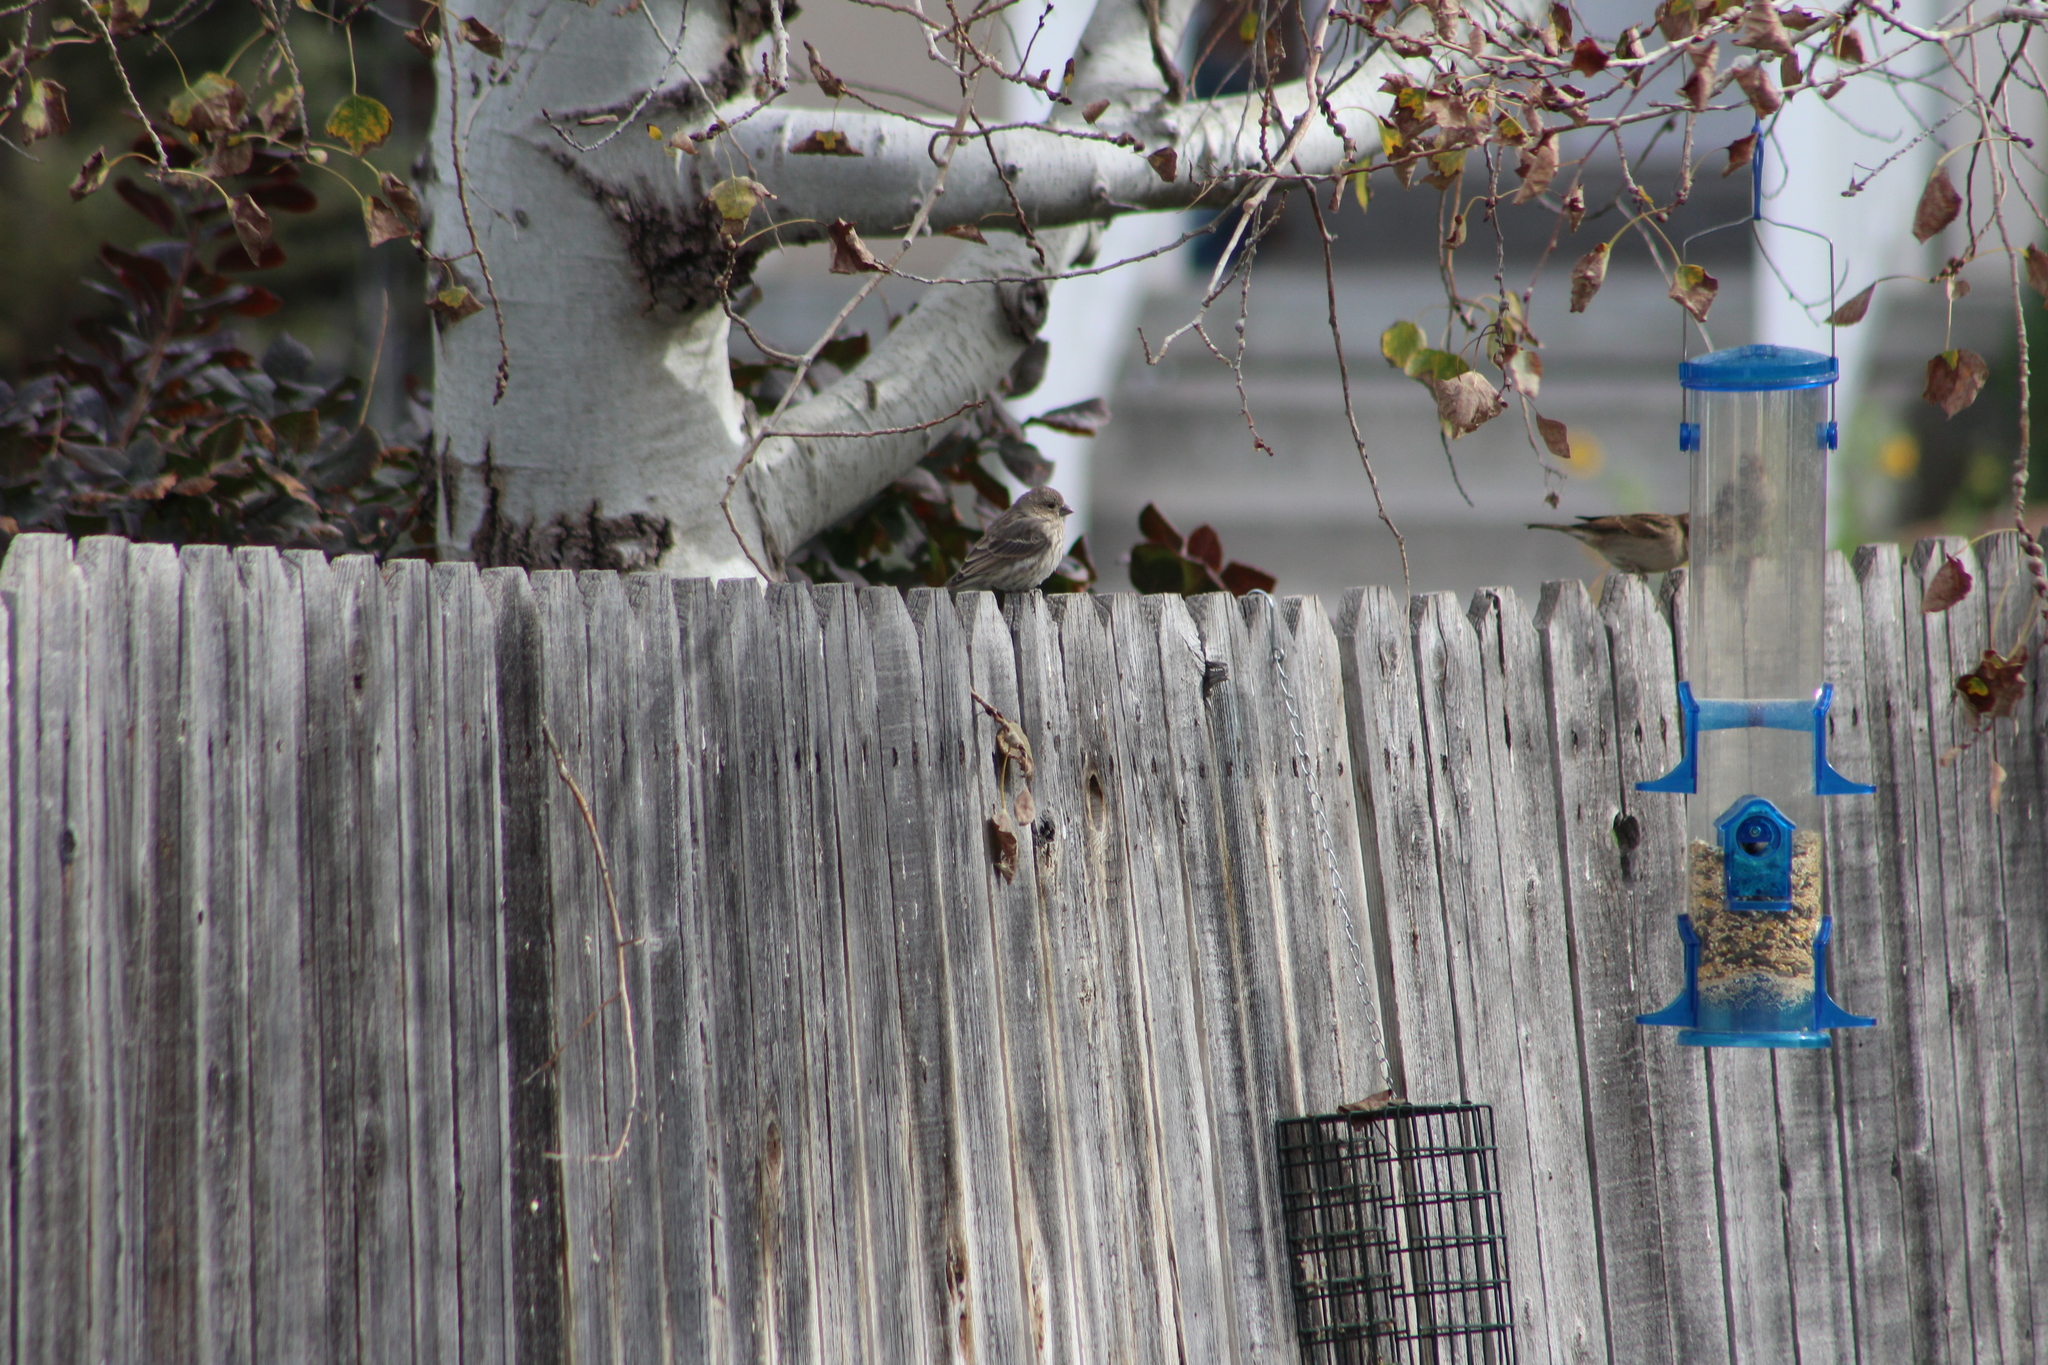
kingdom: Animalia
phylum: Chordata
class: Aves
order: Passeriformes
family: Fringillidae
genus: Haemorhous
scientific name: Haemorhous mexicanus
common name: House finch
